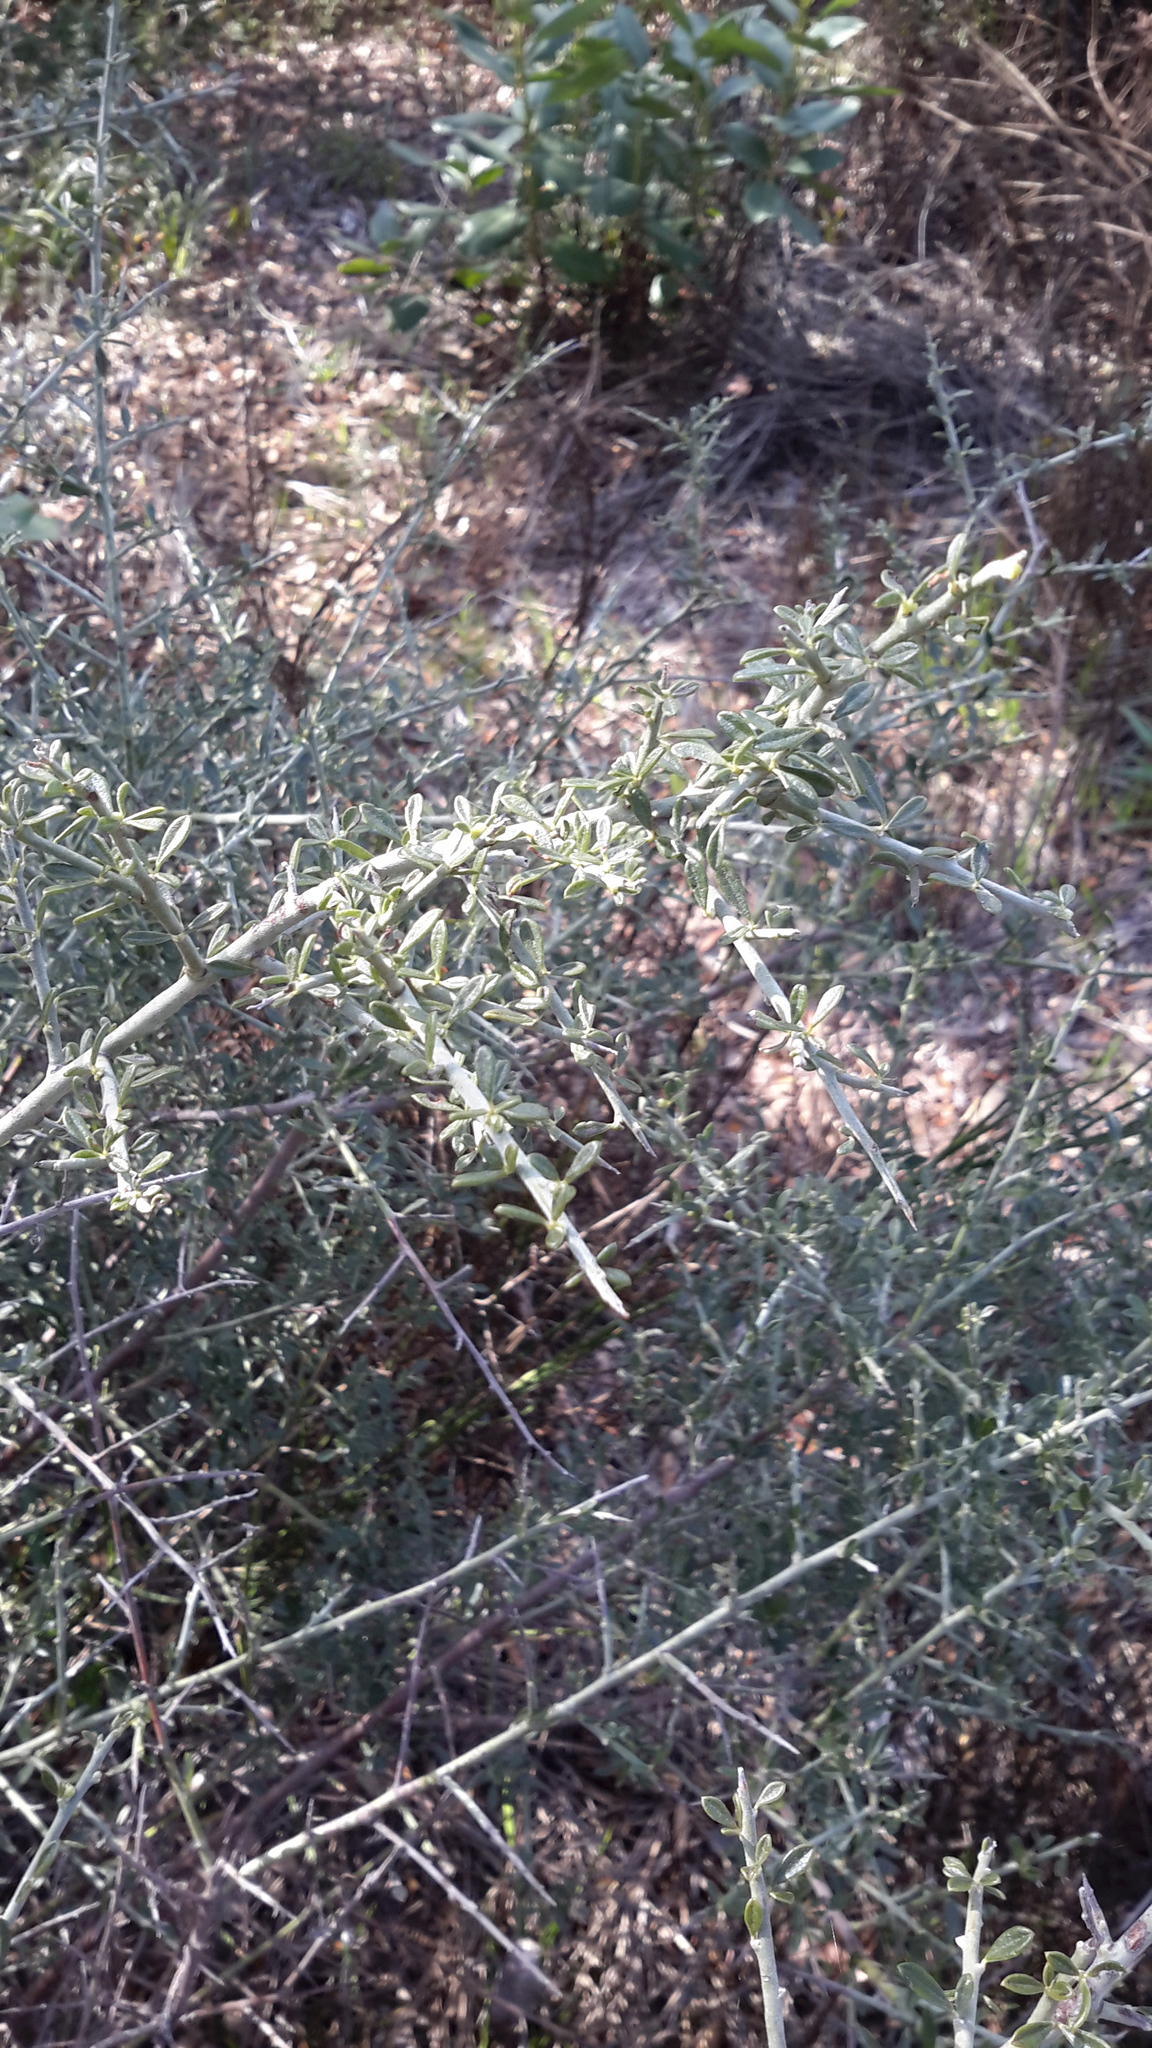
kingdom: Plantae
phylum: Tracheophyta
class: Magnoliopsida
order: Fabales
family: Fabaceae
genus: Pickeringia
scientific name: Pickeringia montana
